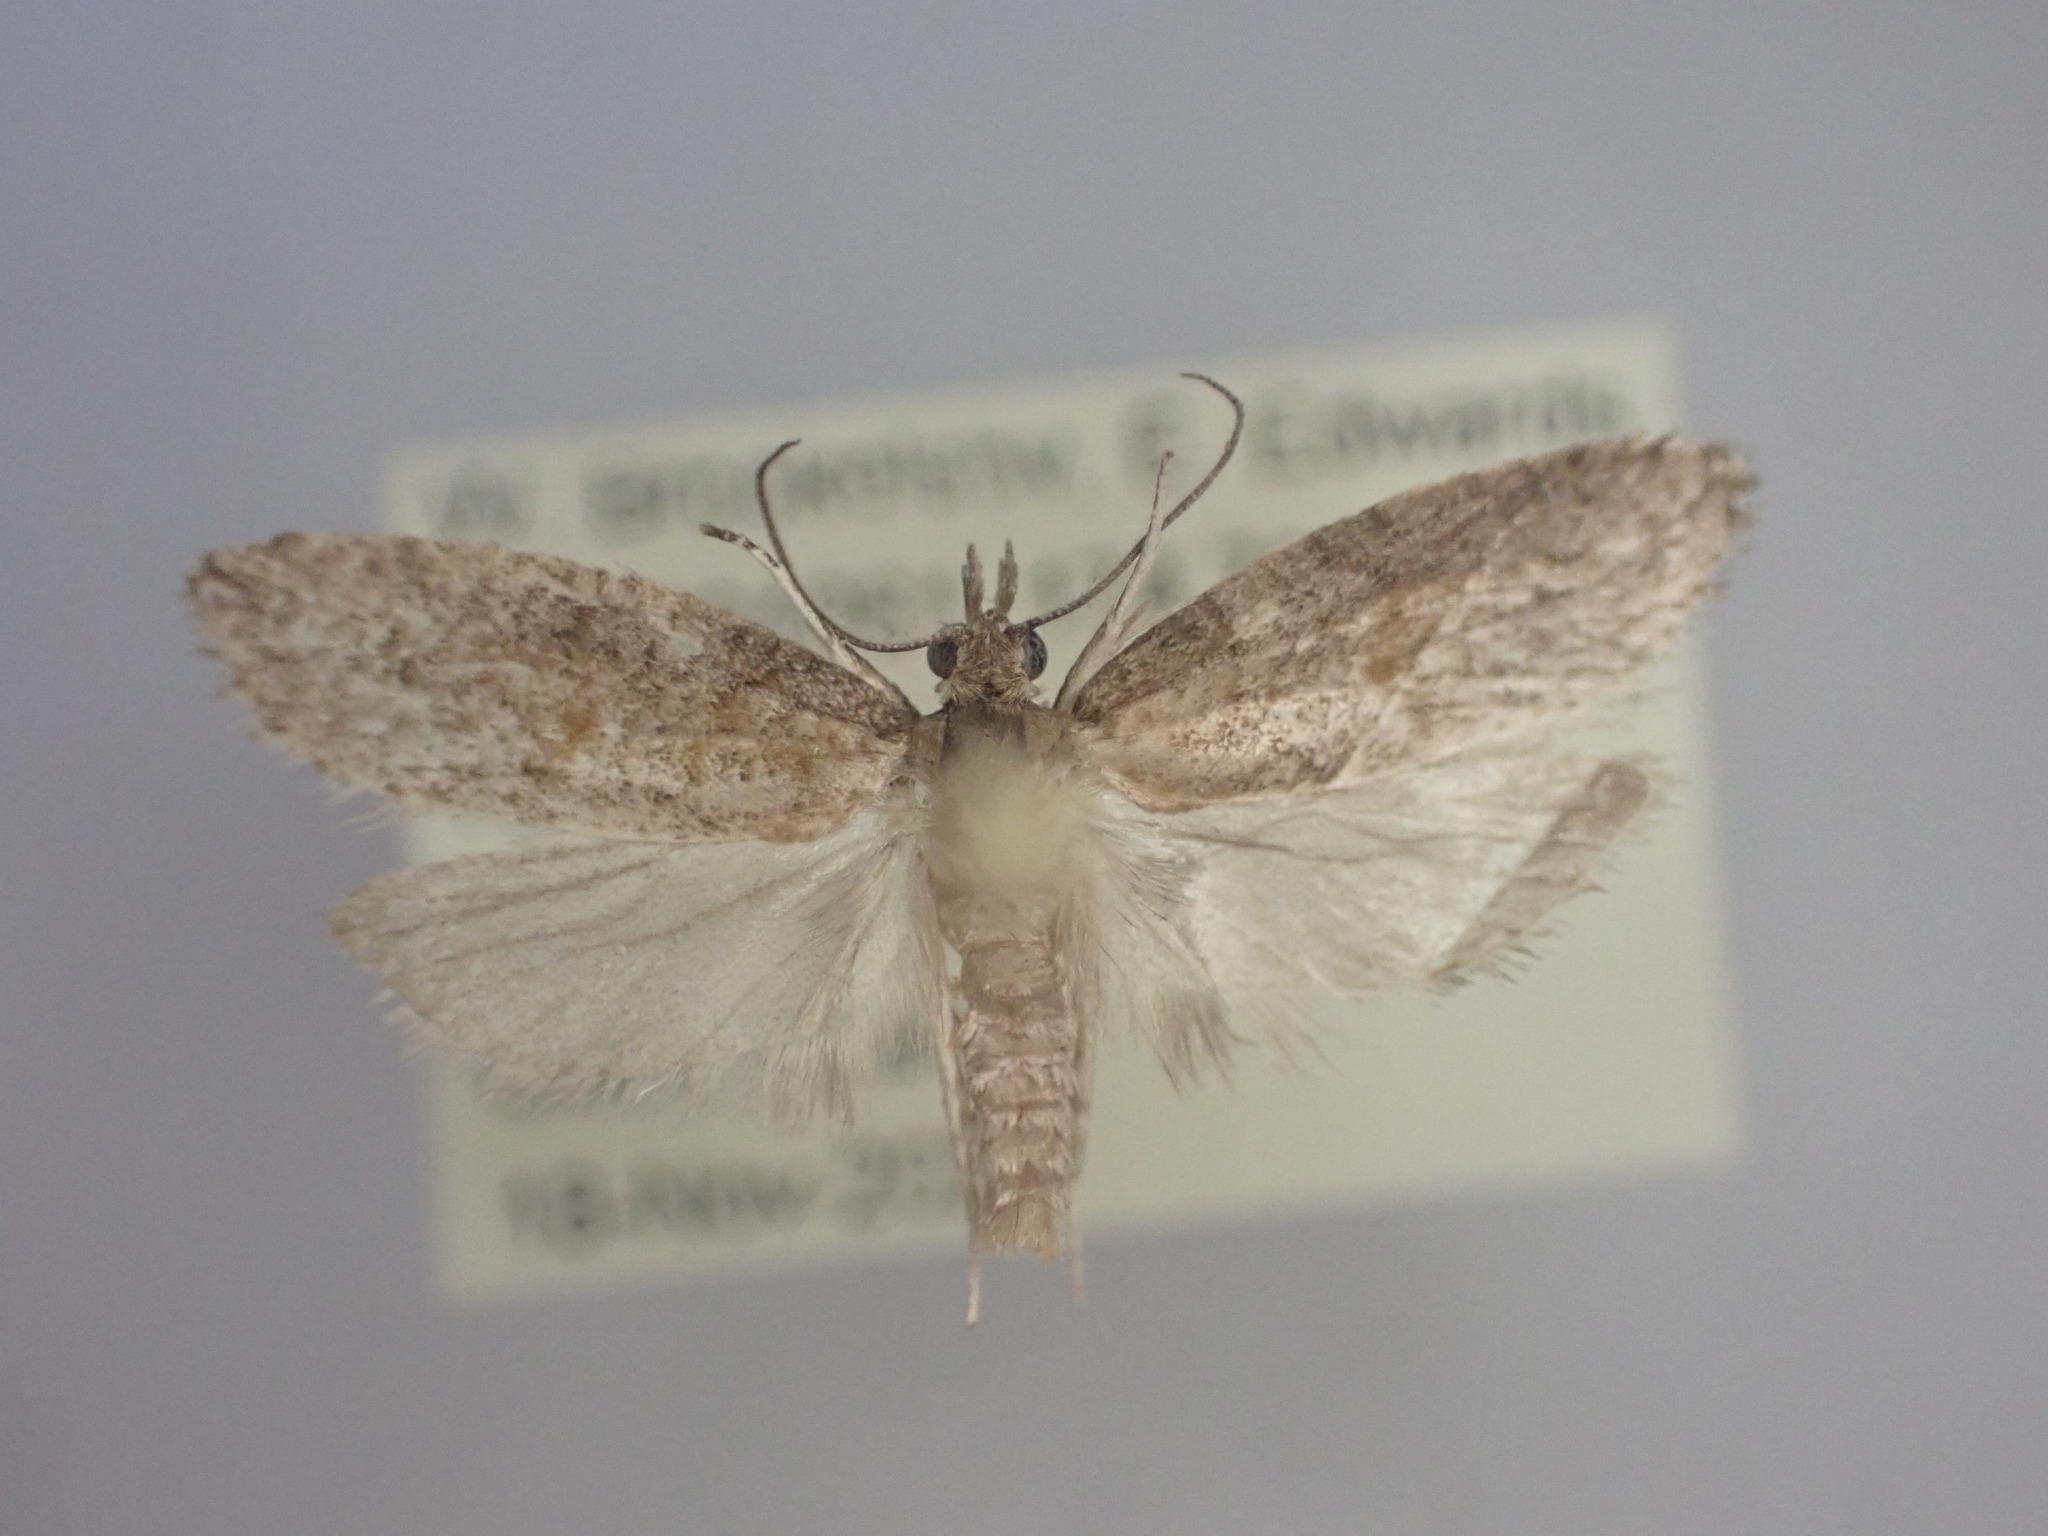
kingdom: Animalia
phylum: Arthropoda
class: Insecta
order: Lepidoptera
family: Tortricidae
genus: Prothelymna
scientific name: Prothelymna antiquana
